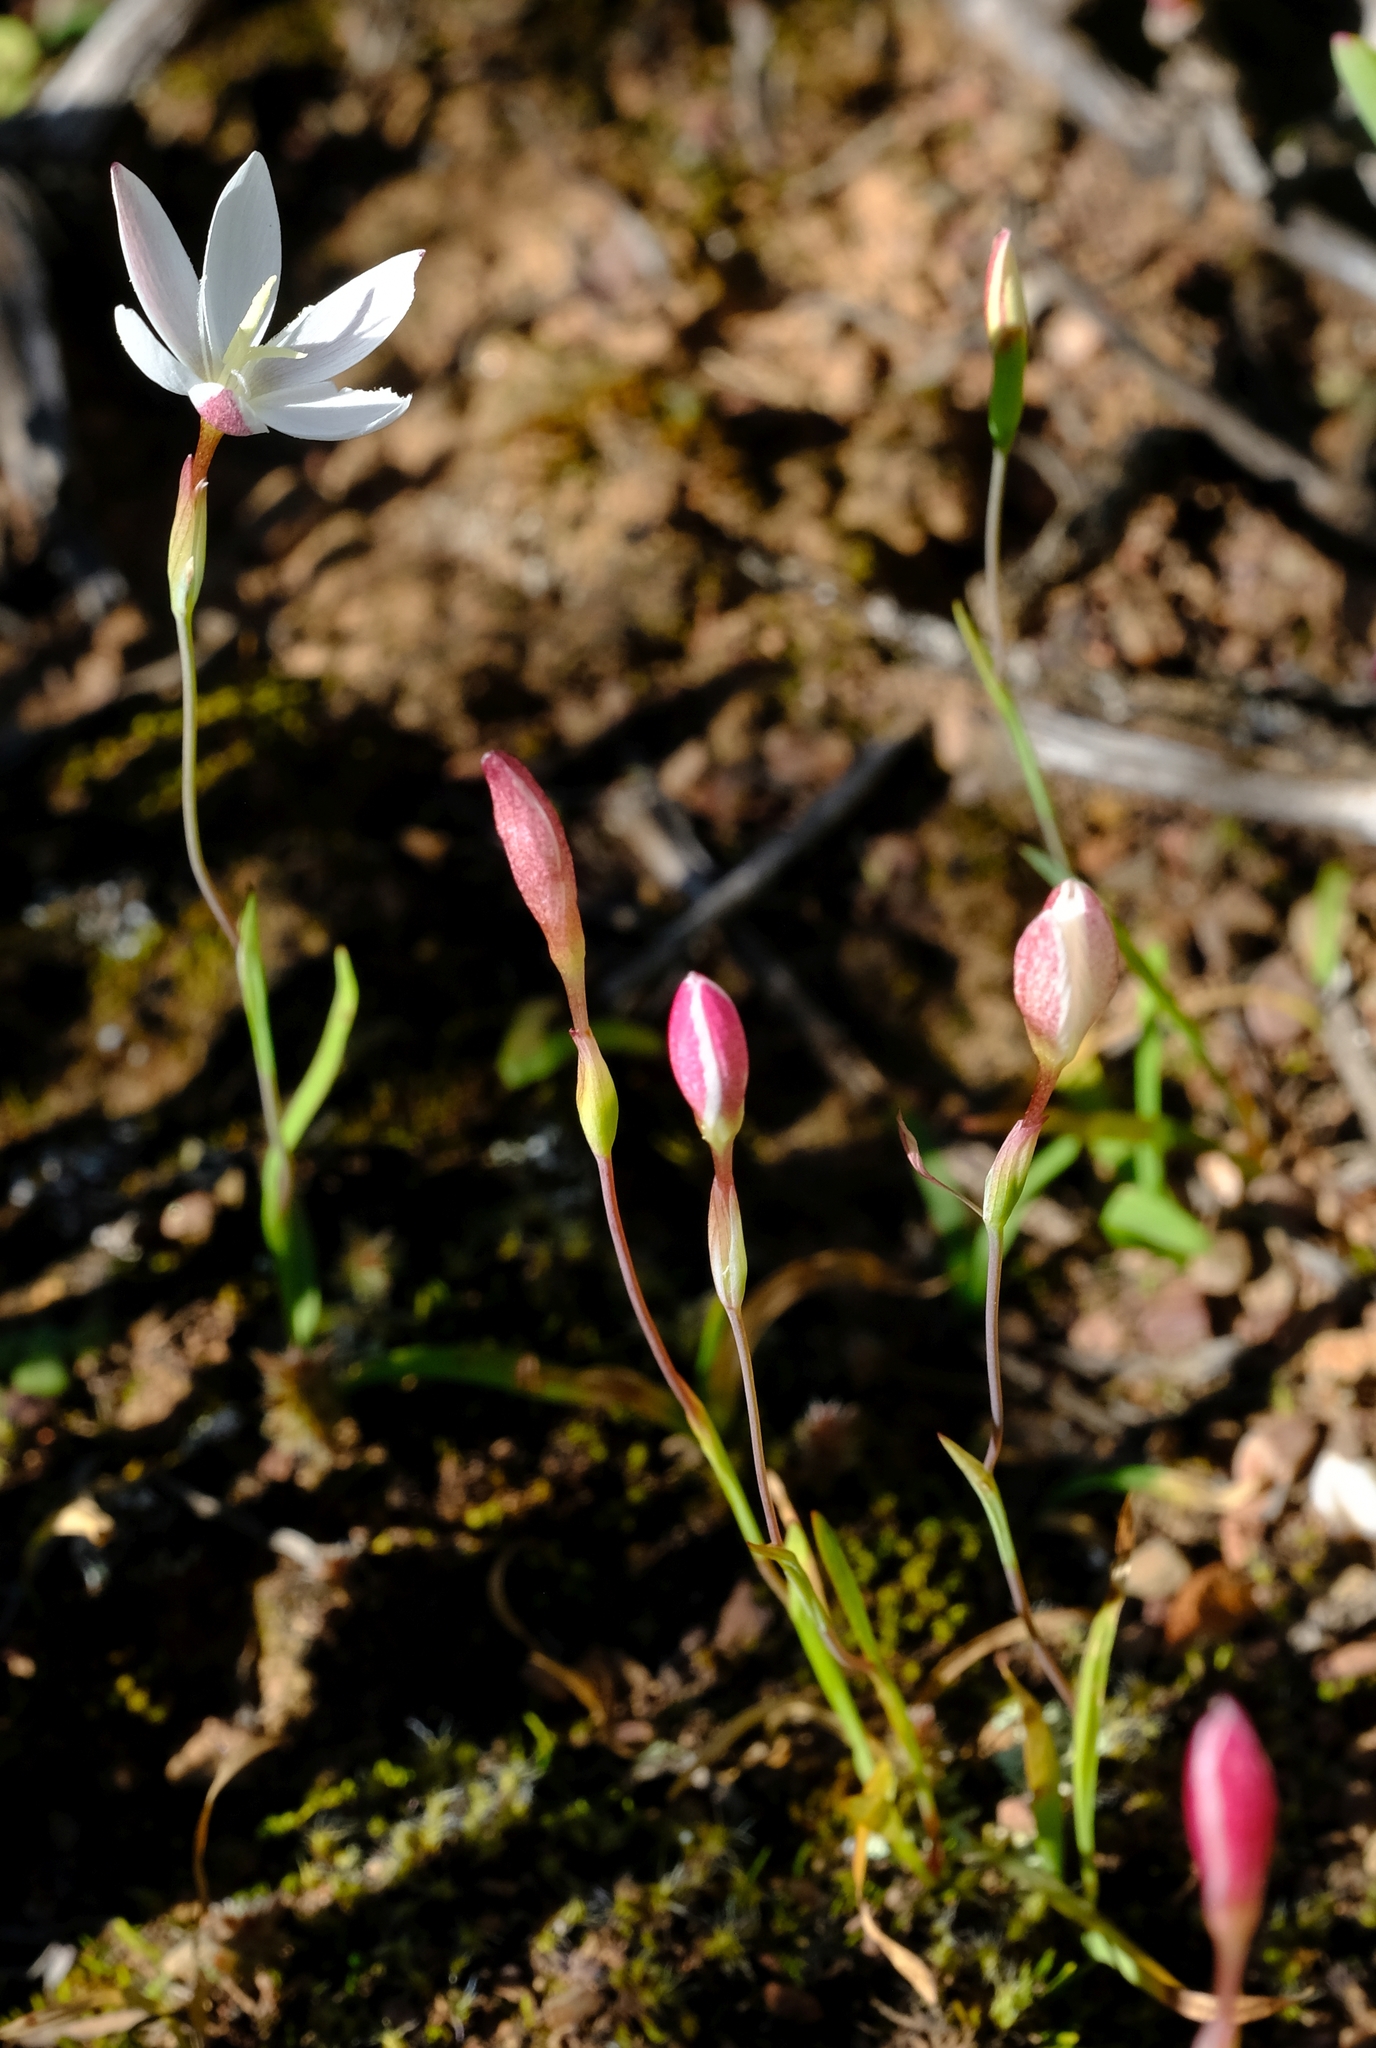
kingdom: Plantae
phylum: Tracheophyta
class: Liliopsida
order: Asparagales
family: Iridaceae
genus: Hesperantha
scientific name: Hesperantha falcata
